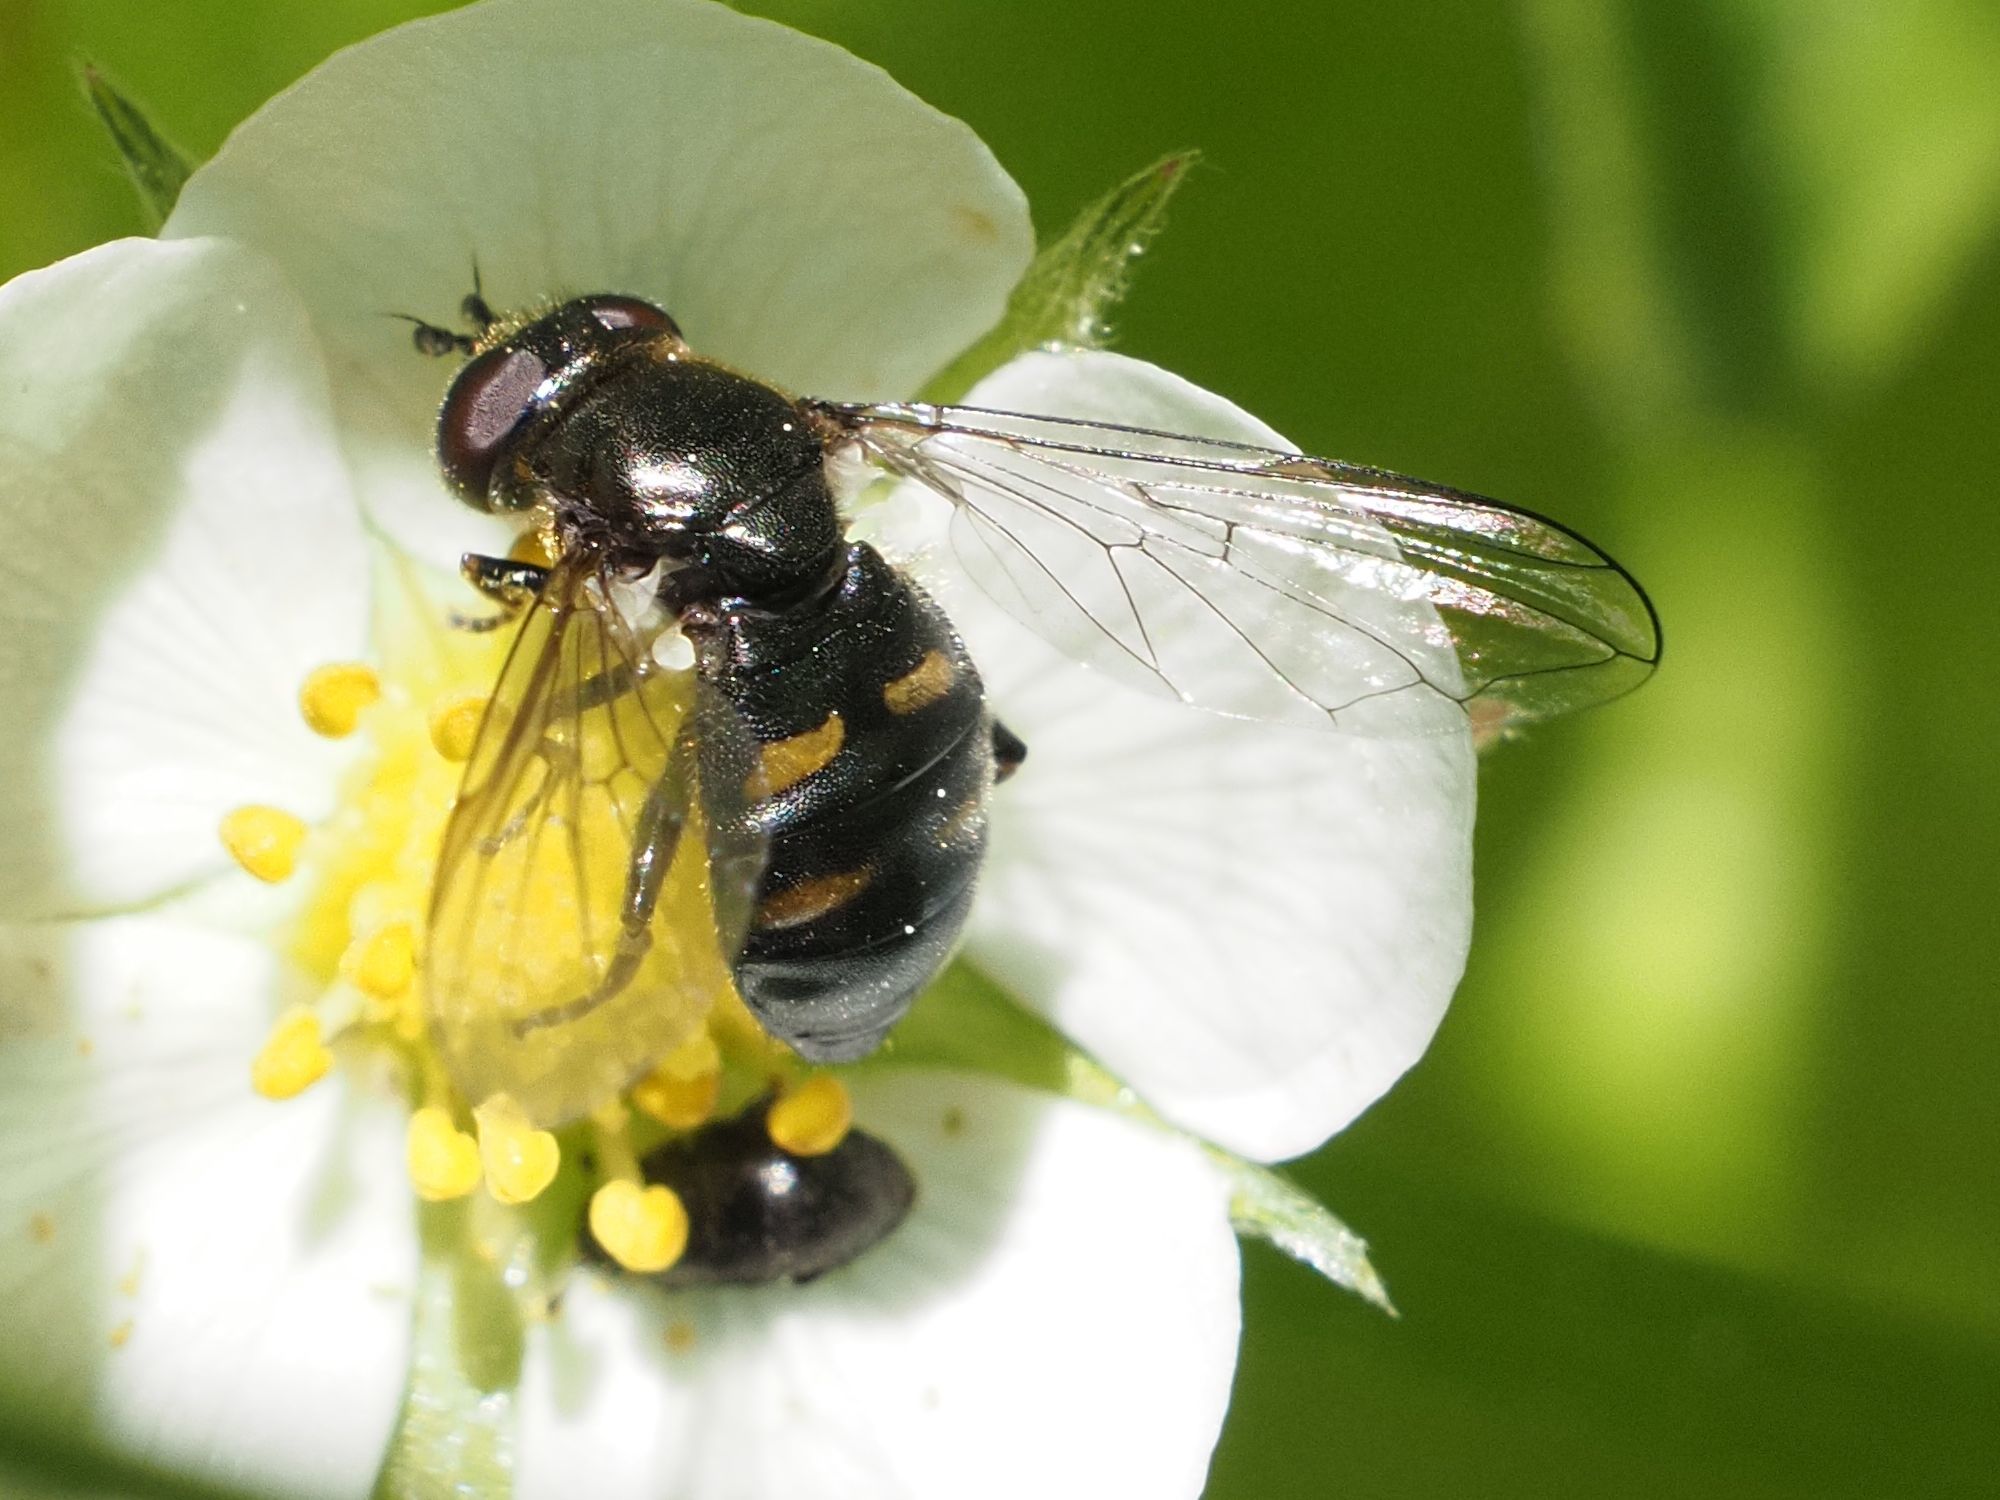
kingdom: Animalia
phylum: Arthropoda
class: Insecta
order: Diptera
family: Syrphidae
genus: Pipiza
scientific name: Pipiza quadrimaculata
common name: Four-spotted pipiza
